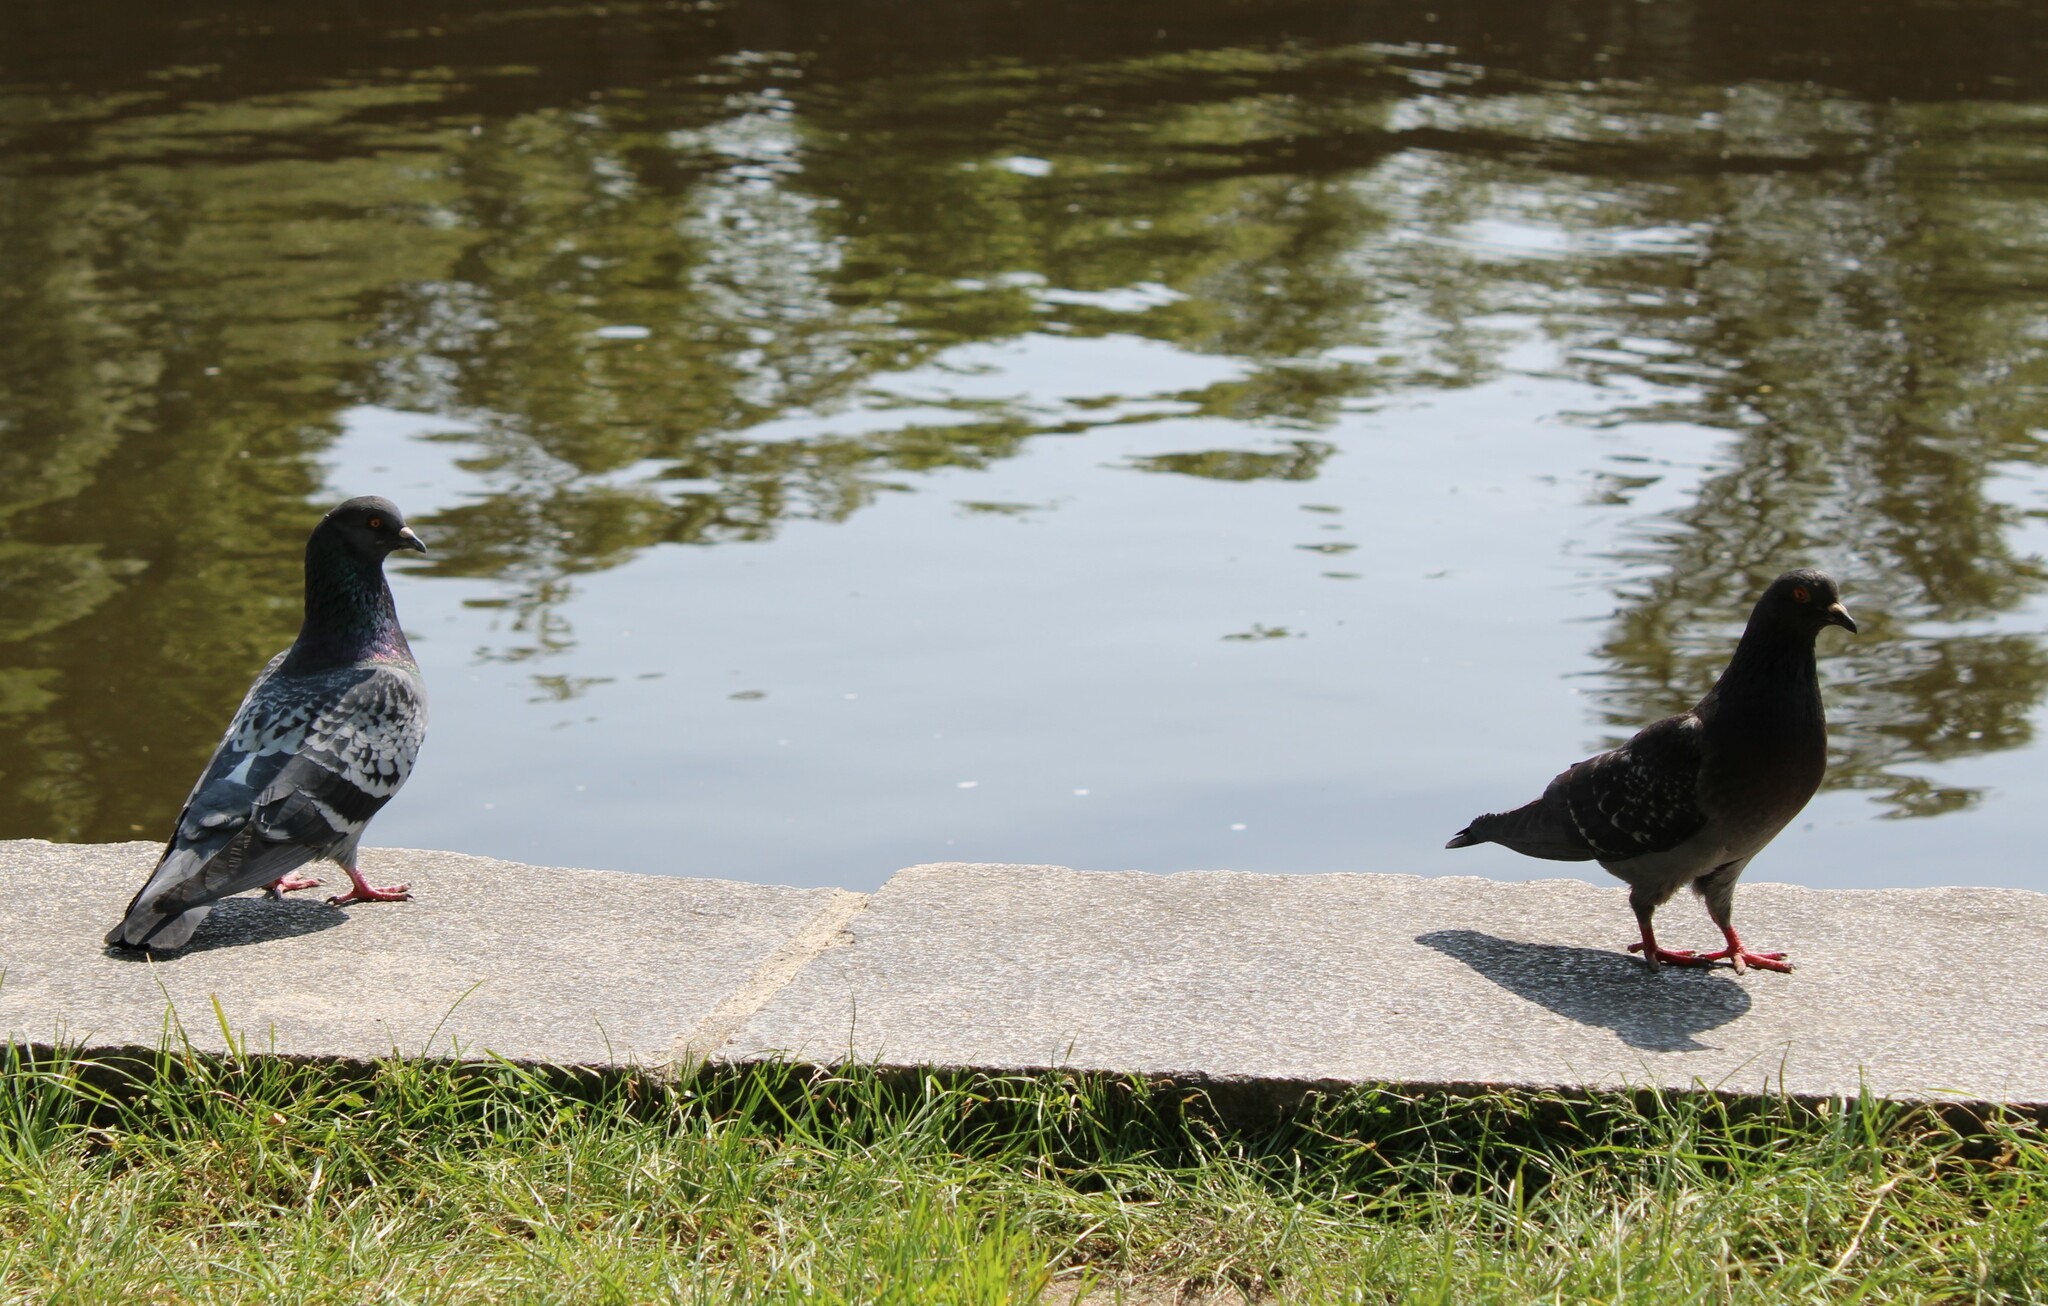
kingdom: Animalia
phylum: Chordata
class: Aves
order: Columbiformes
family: Columbidae
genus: Columba
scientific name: Columba livia
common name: Rock pigeon
